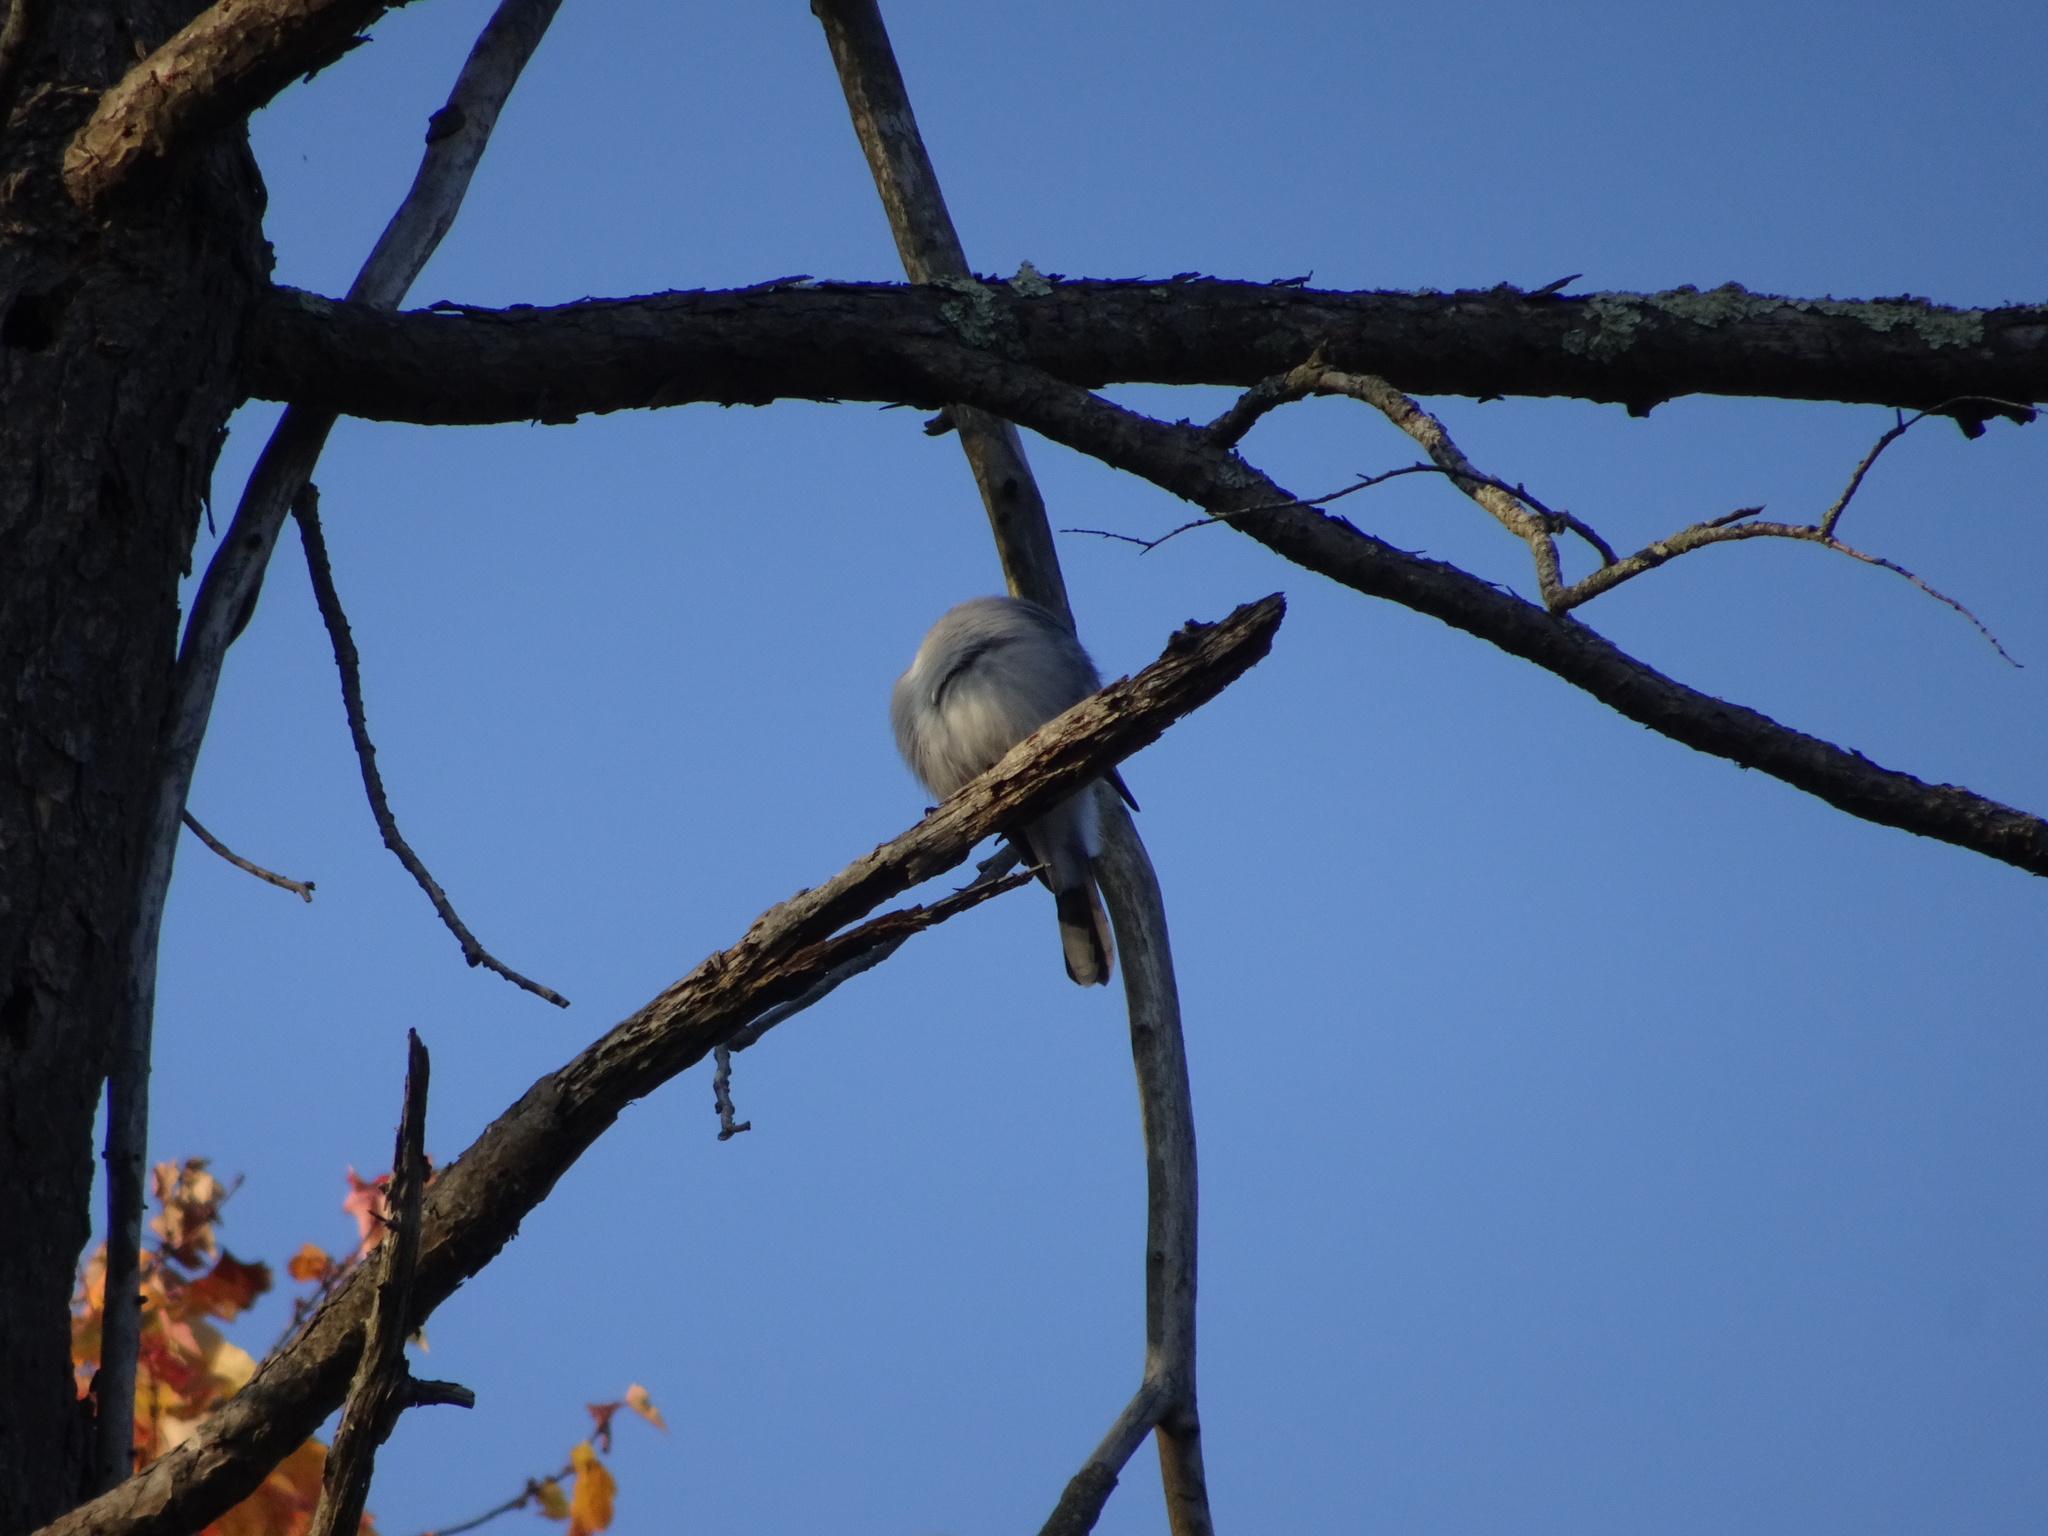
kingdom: Animalia
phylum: Chordata
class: Aves
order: Passeriformes
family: Corvidae
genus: Cyanocitta
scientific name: Cyanocitta cristata
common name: Blue jay
